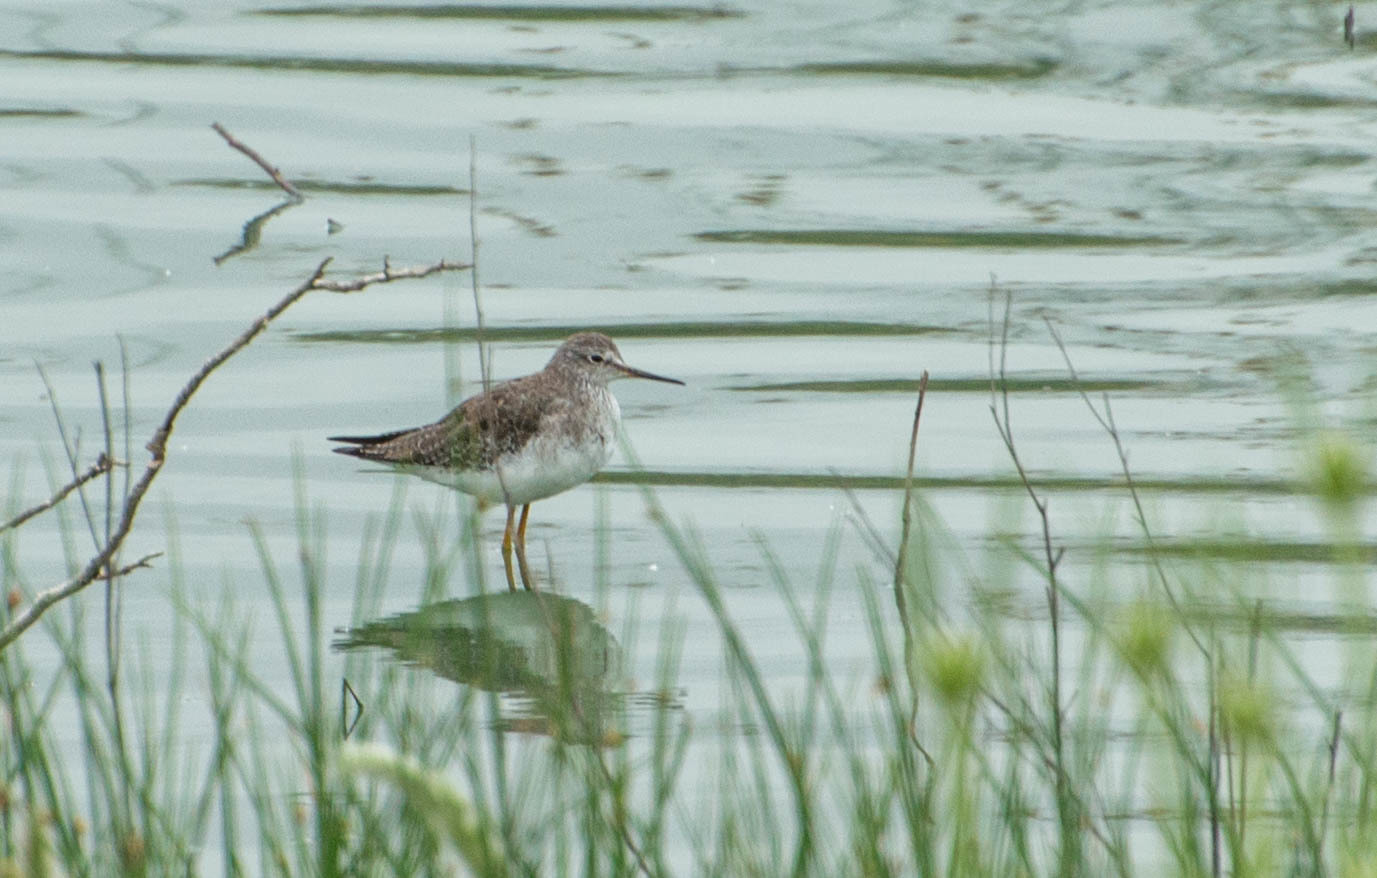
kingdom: Animalia
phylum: Chordata
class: Aves
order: Charadriiformes
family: Scolopacidae
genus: Tringa
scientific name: Tringa flavipes
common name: Lesser yellowlegs
